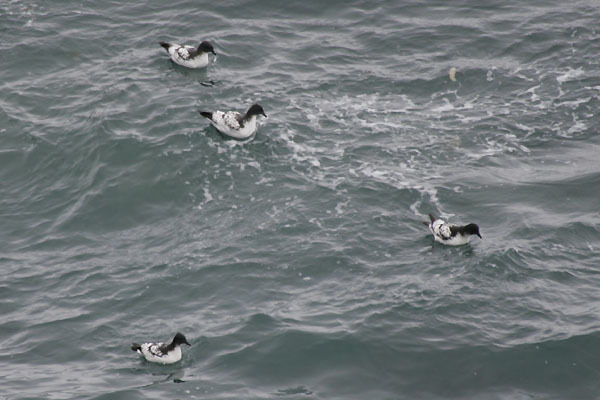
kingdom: Animalia
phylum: Chordata
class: Aves
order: Procellariiformes
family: Procellariidae
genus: Daption
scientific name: Daption capense
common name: Cape petrel
